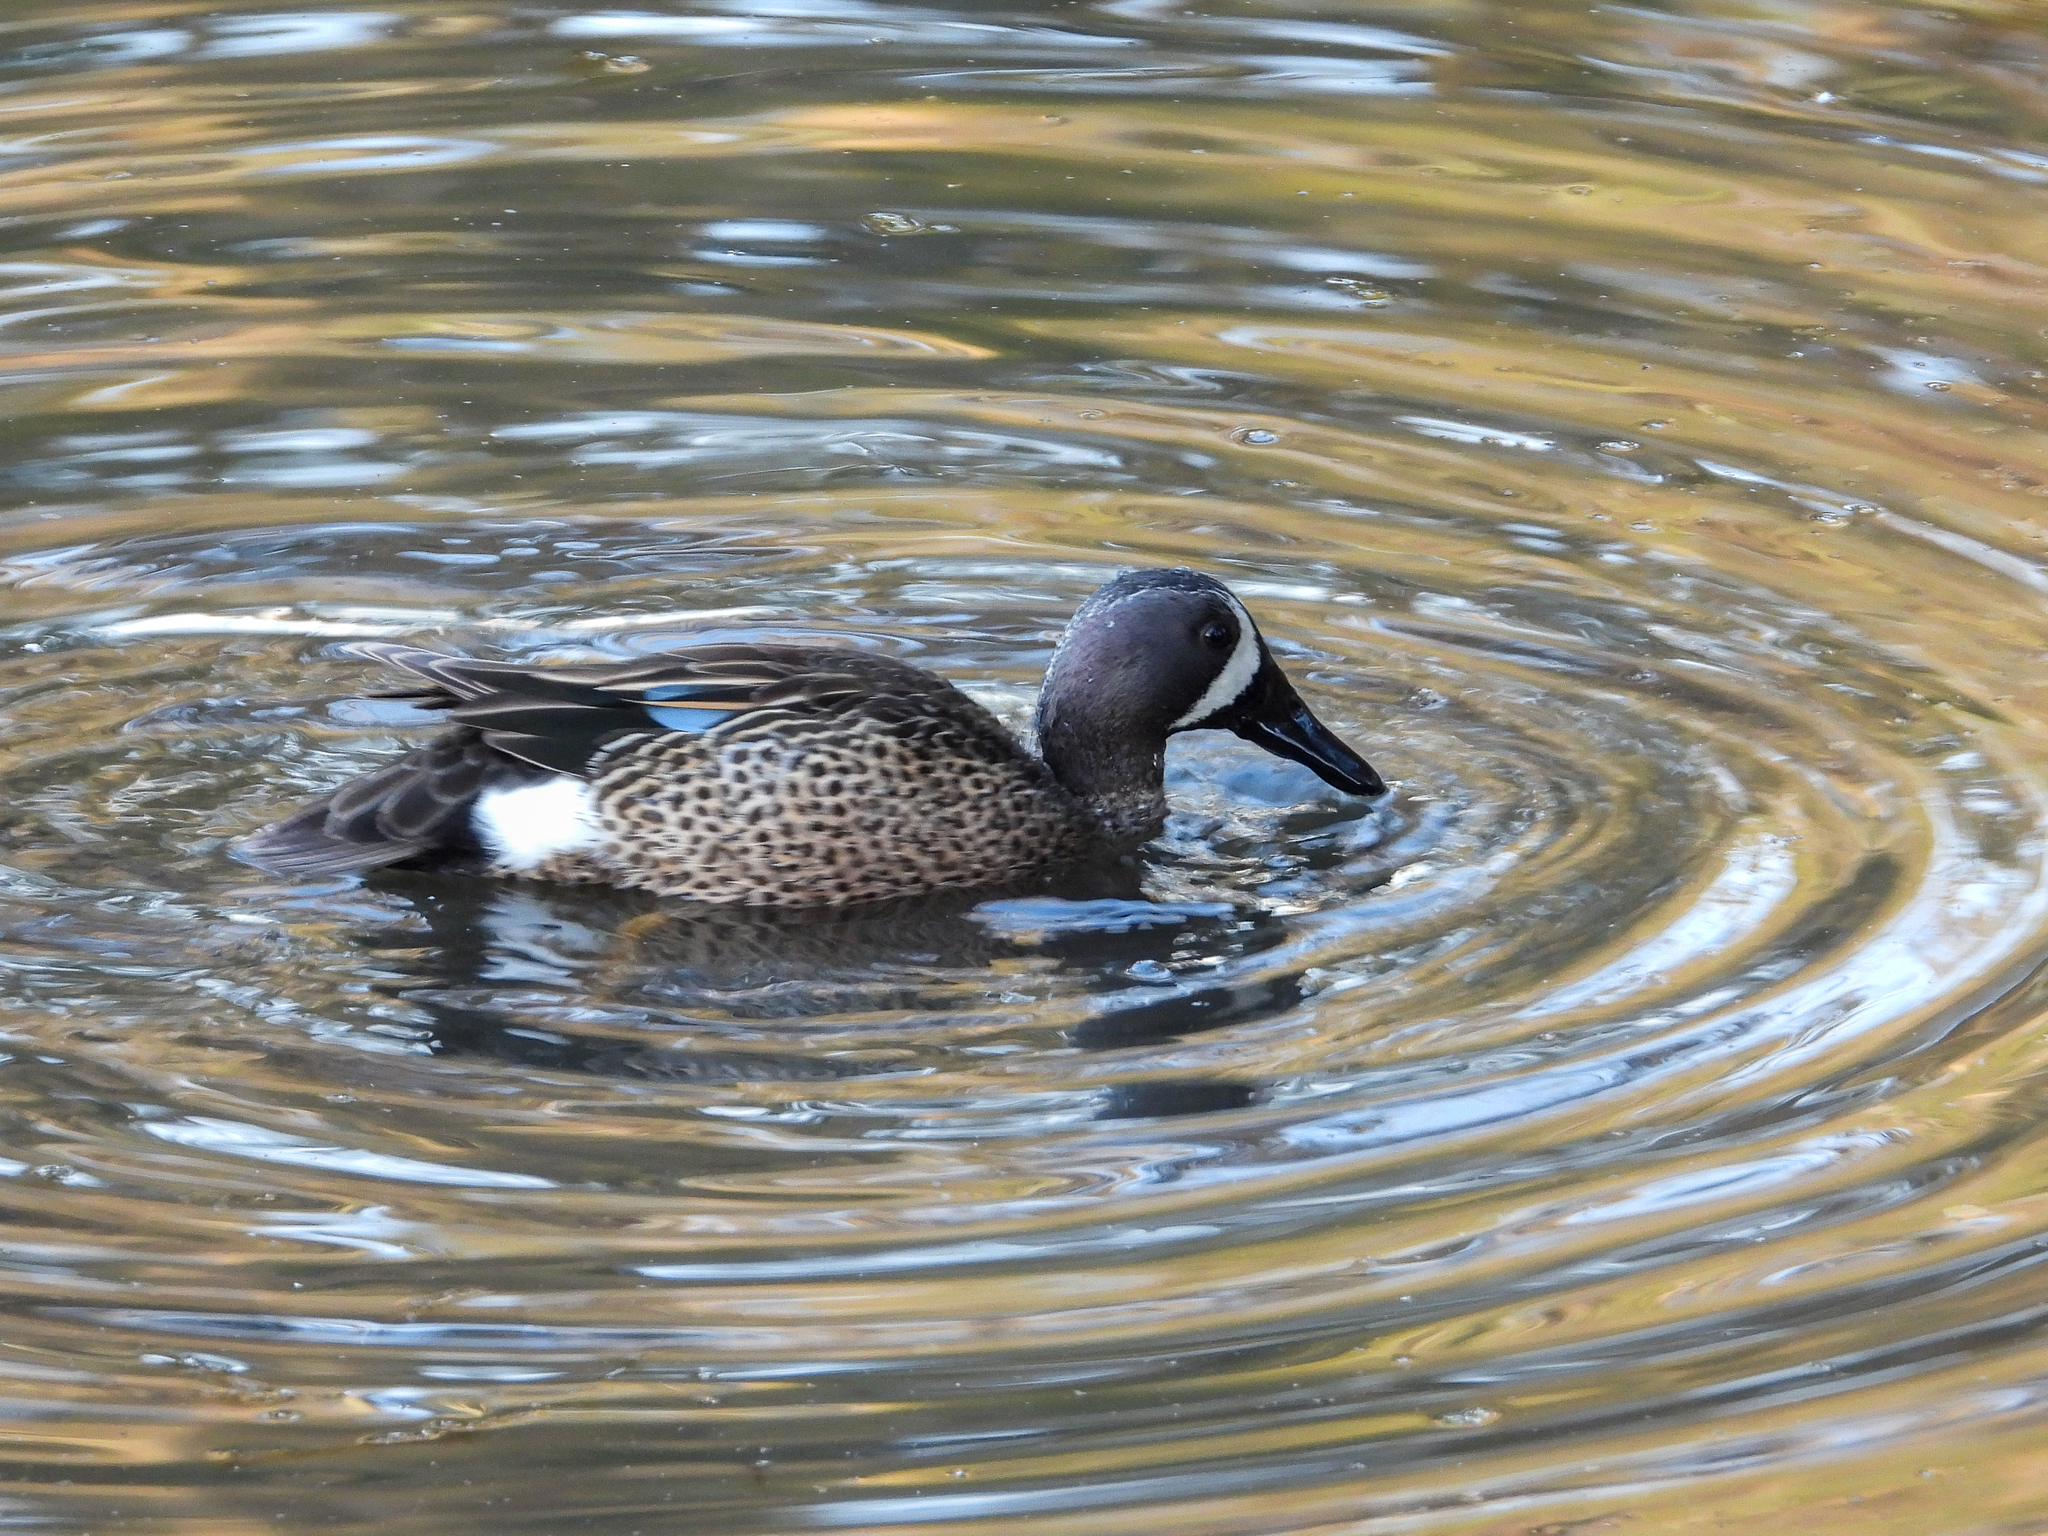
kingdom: Animalia
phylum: Chordata
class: Aves
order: Anseriformes
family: Anatidae
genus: Spatula
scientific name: Spatula discors
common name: Blue-winged teal
